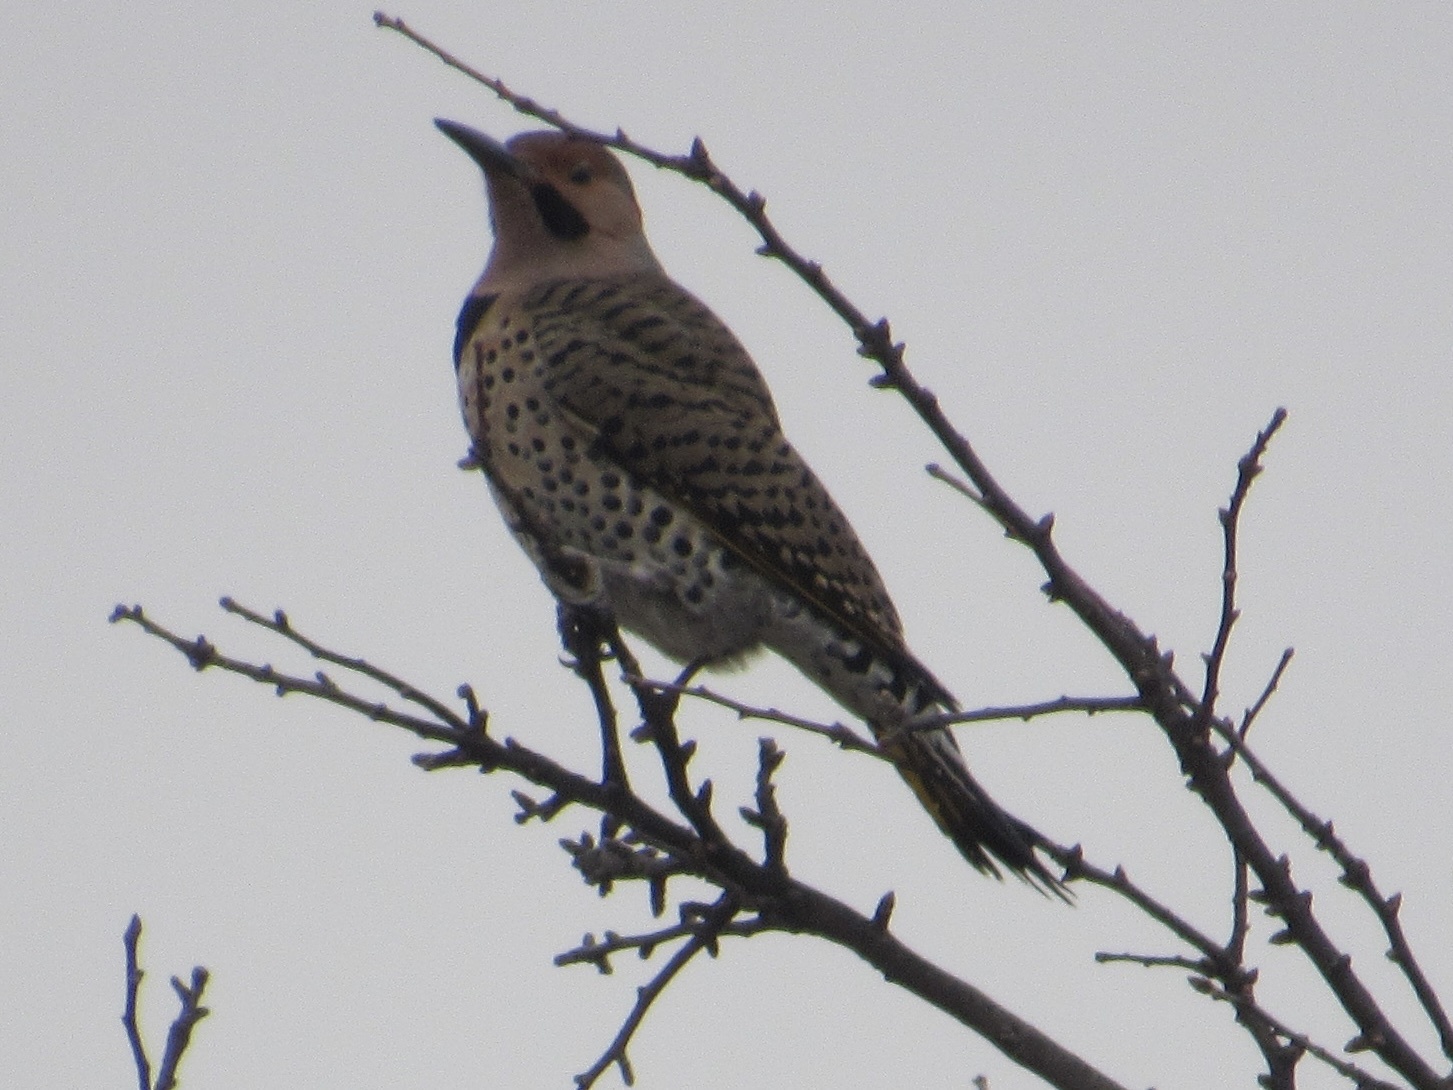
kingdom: Animalia
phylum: Chordata
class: Aves
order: Piciformes
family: Picidae
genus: Colaptes
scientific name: Colaptes auratus
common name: Northern flicker
